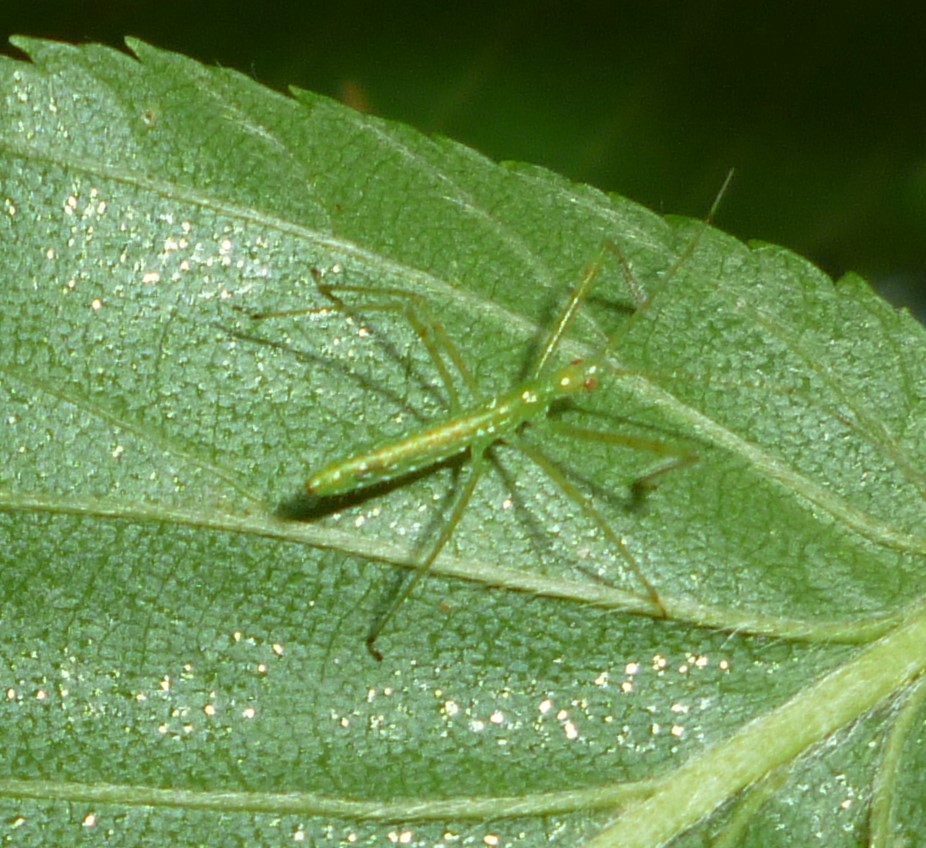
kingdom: Animalia
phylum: Arthropoda
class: Insecta
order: Hemiptera
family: Reduviidae
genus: Zelus
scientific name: Zelus luridus
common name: Pale green assassin bug
